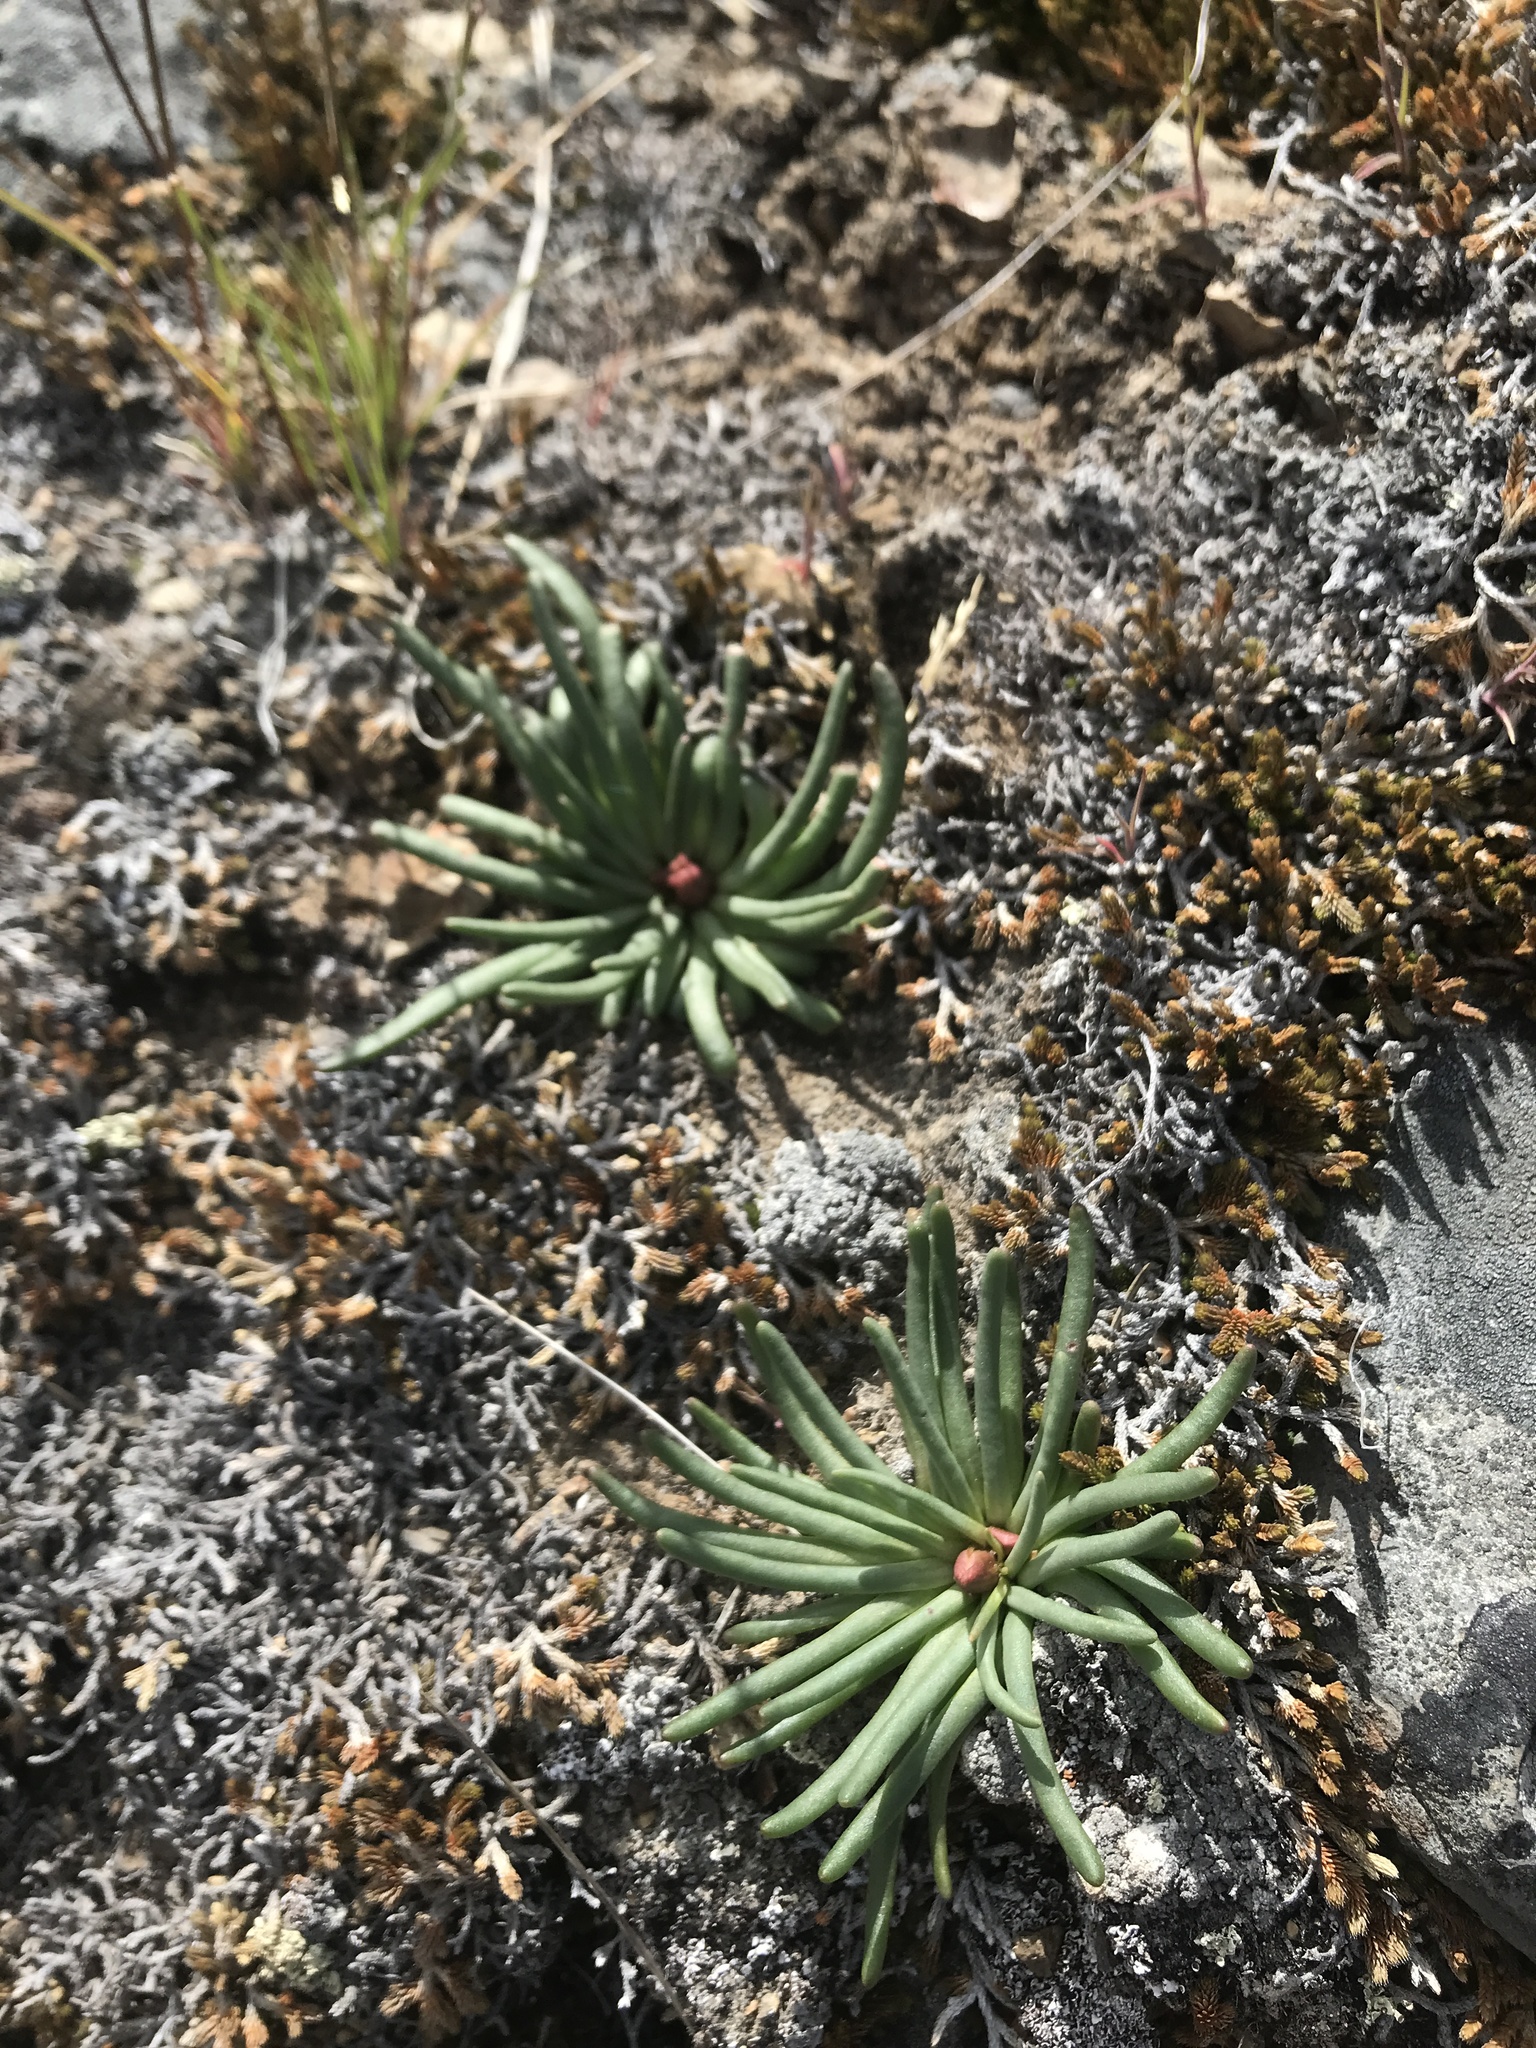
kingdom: Plantae
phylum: Tracheophyta
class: Magnoliopsida
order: Caryophyllales
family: Montiaceae
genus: Lewisia
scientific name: Lewisia rediviva
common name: Bitter-root
